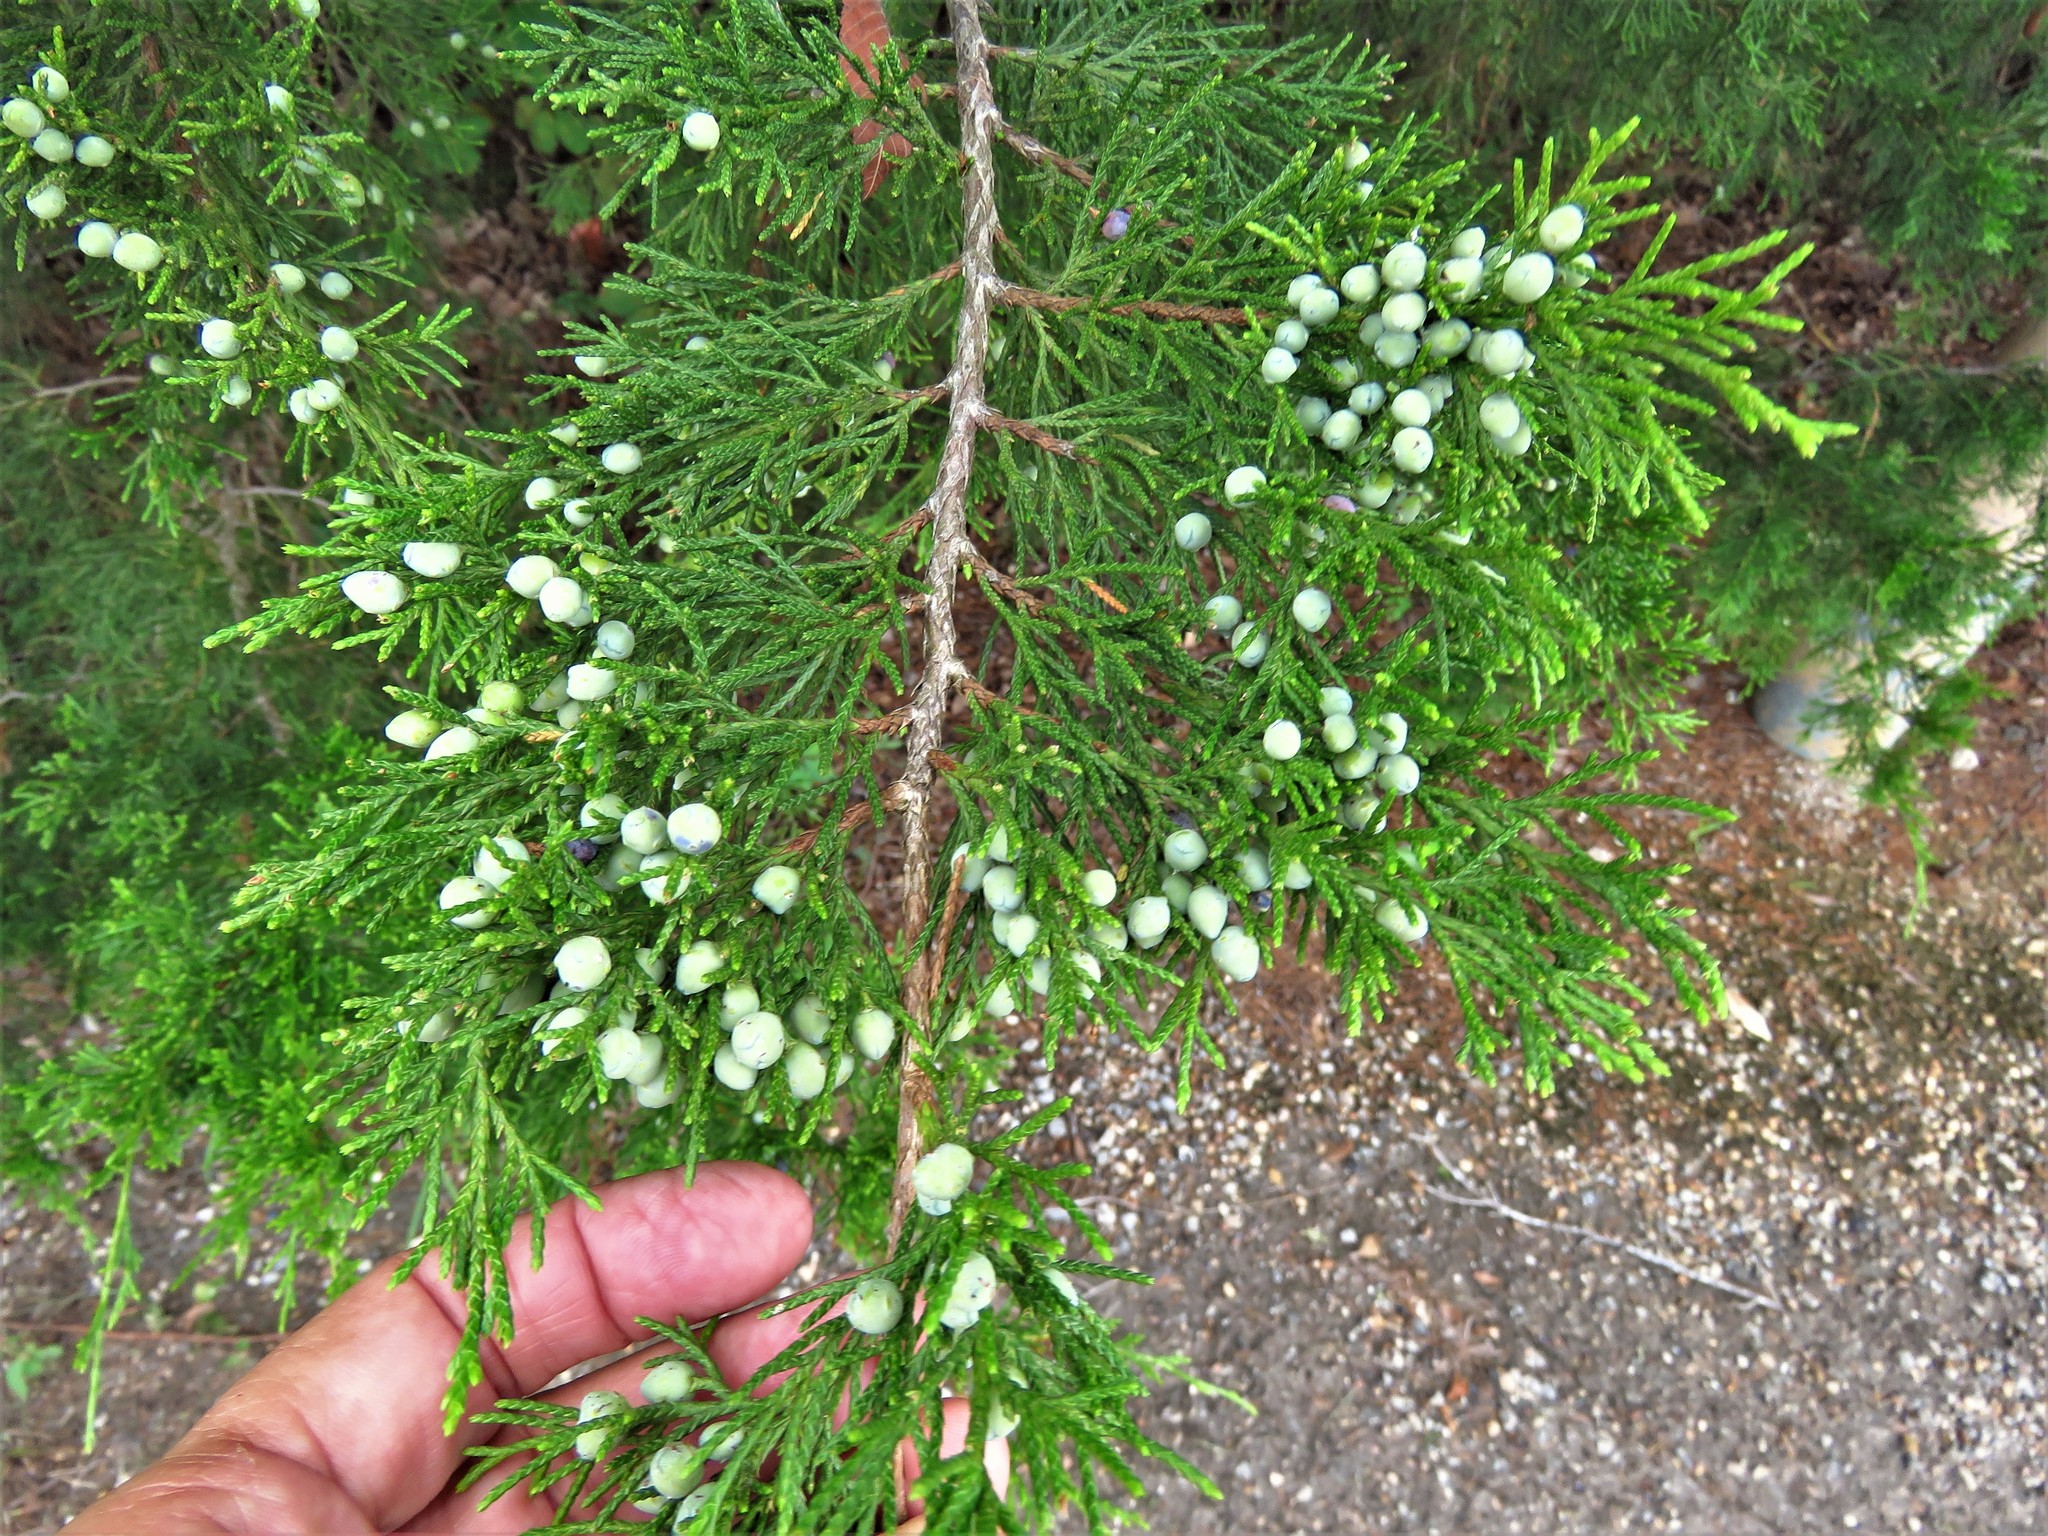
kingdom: Plantae
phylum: Tracheophyta
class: Pinopsida
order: Pinales
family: Cupressaceae
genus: Juniperus
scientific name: Juniperus virginiana
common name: Red juniper
